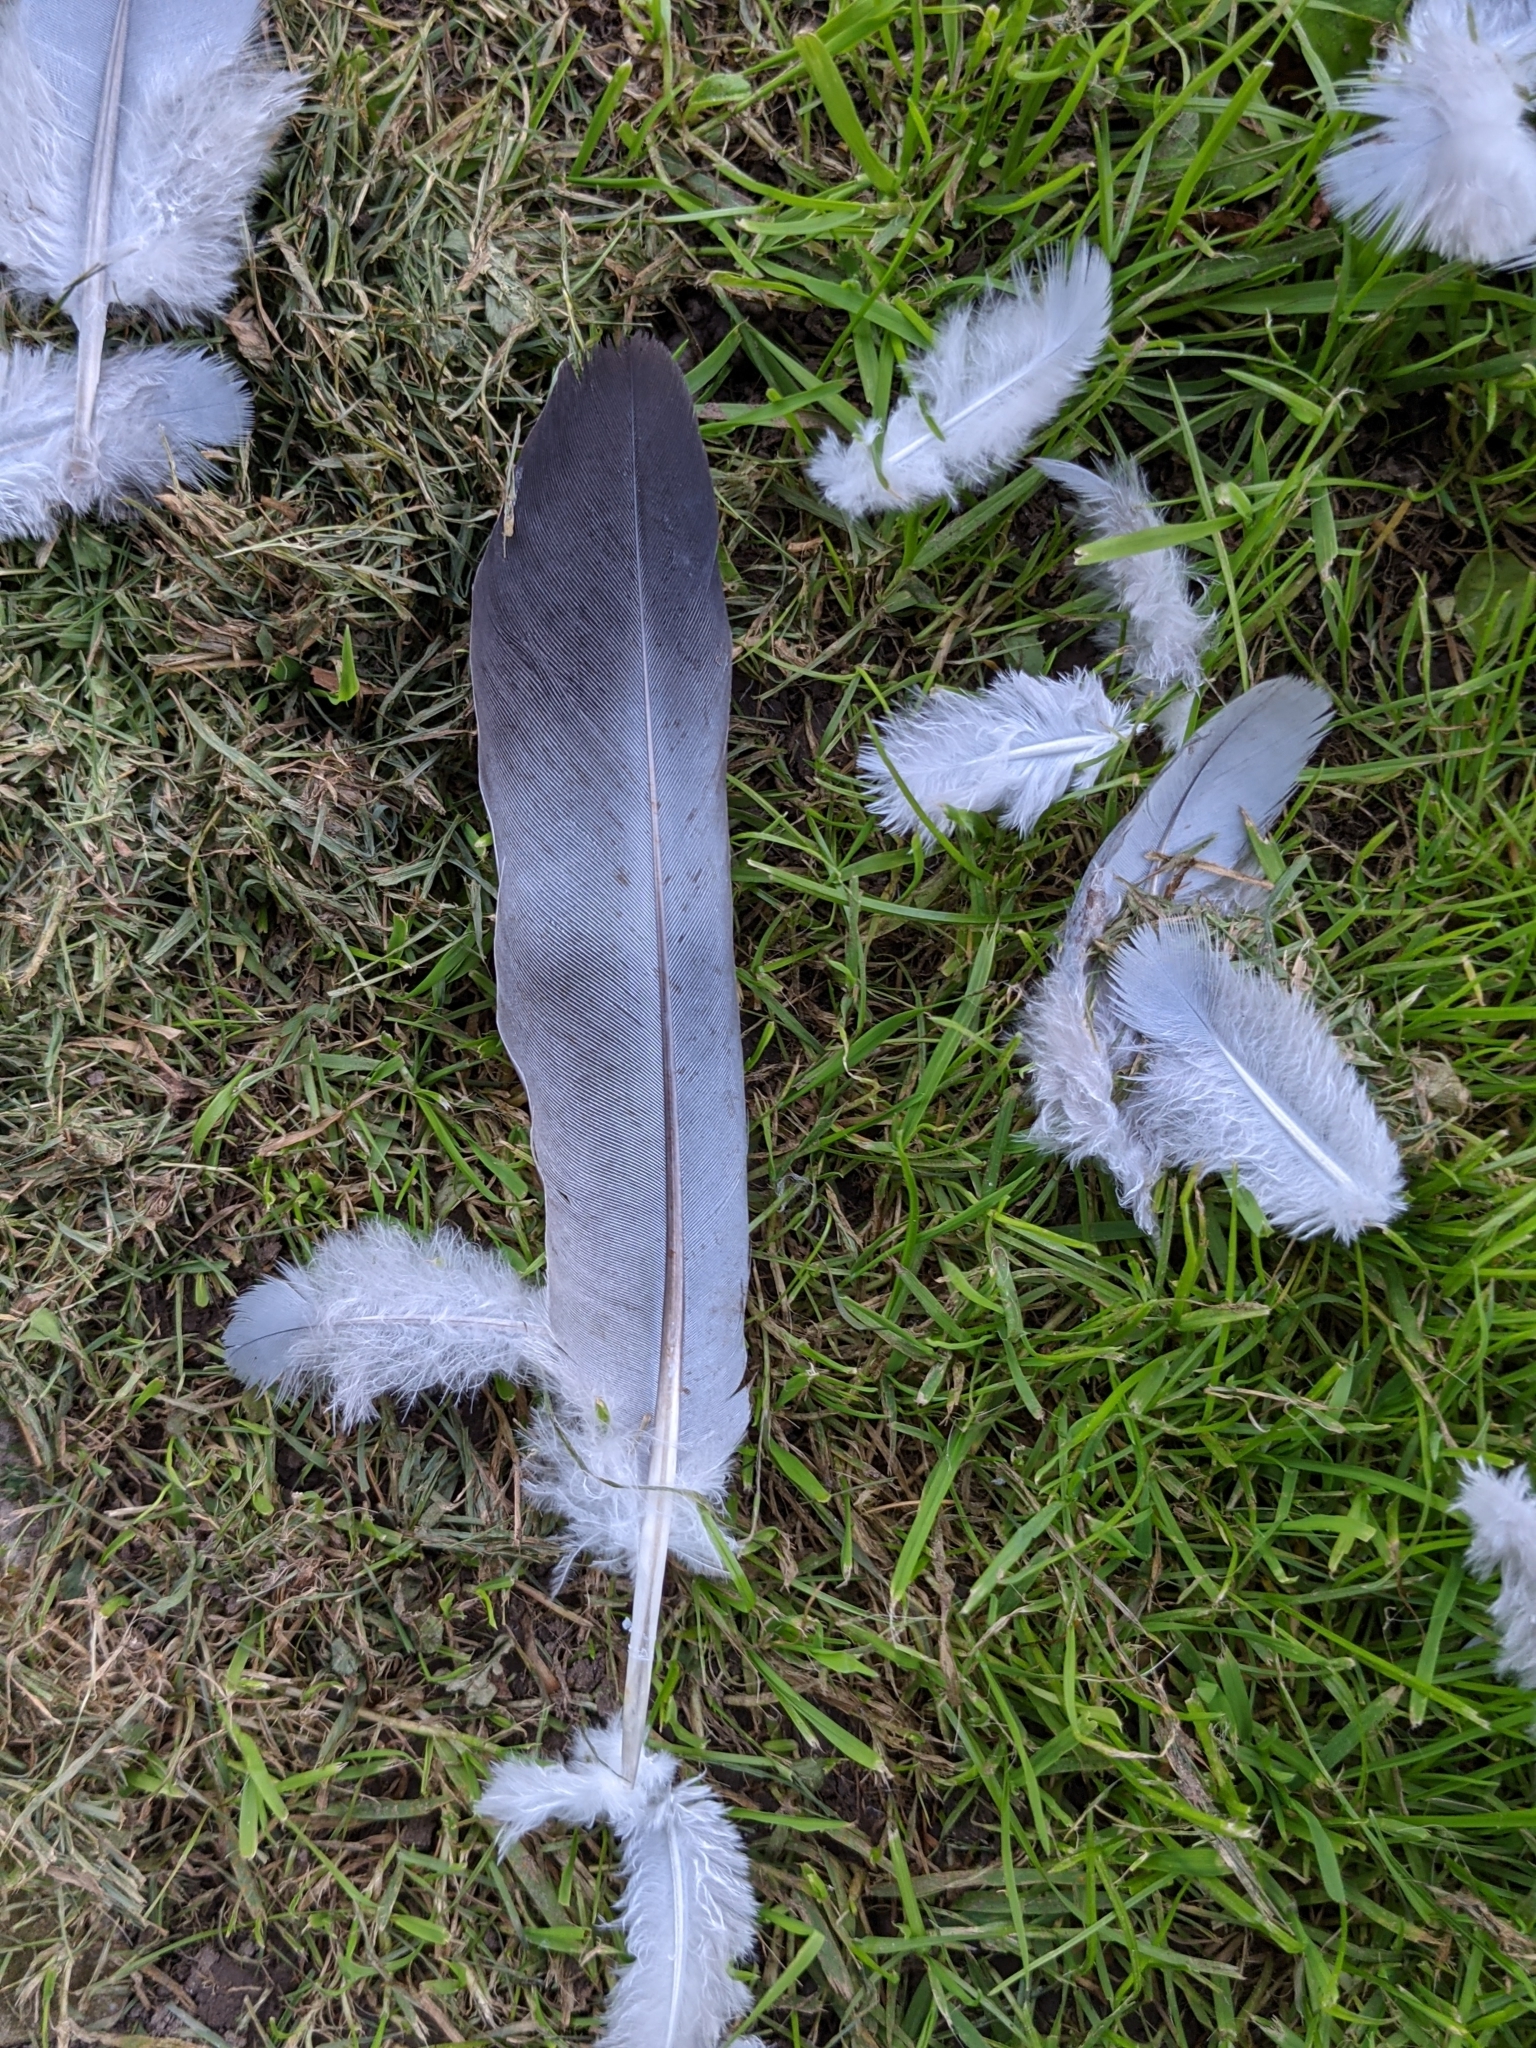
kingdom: Animalia
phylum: Chordata
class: Aves
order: Columbiformes
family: Columbidae
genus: Columba
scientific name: Columba palumbus
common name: Common wood pigeon
